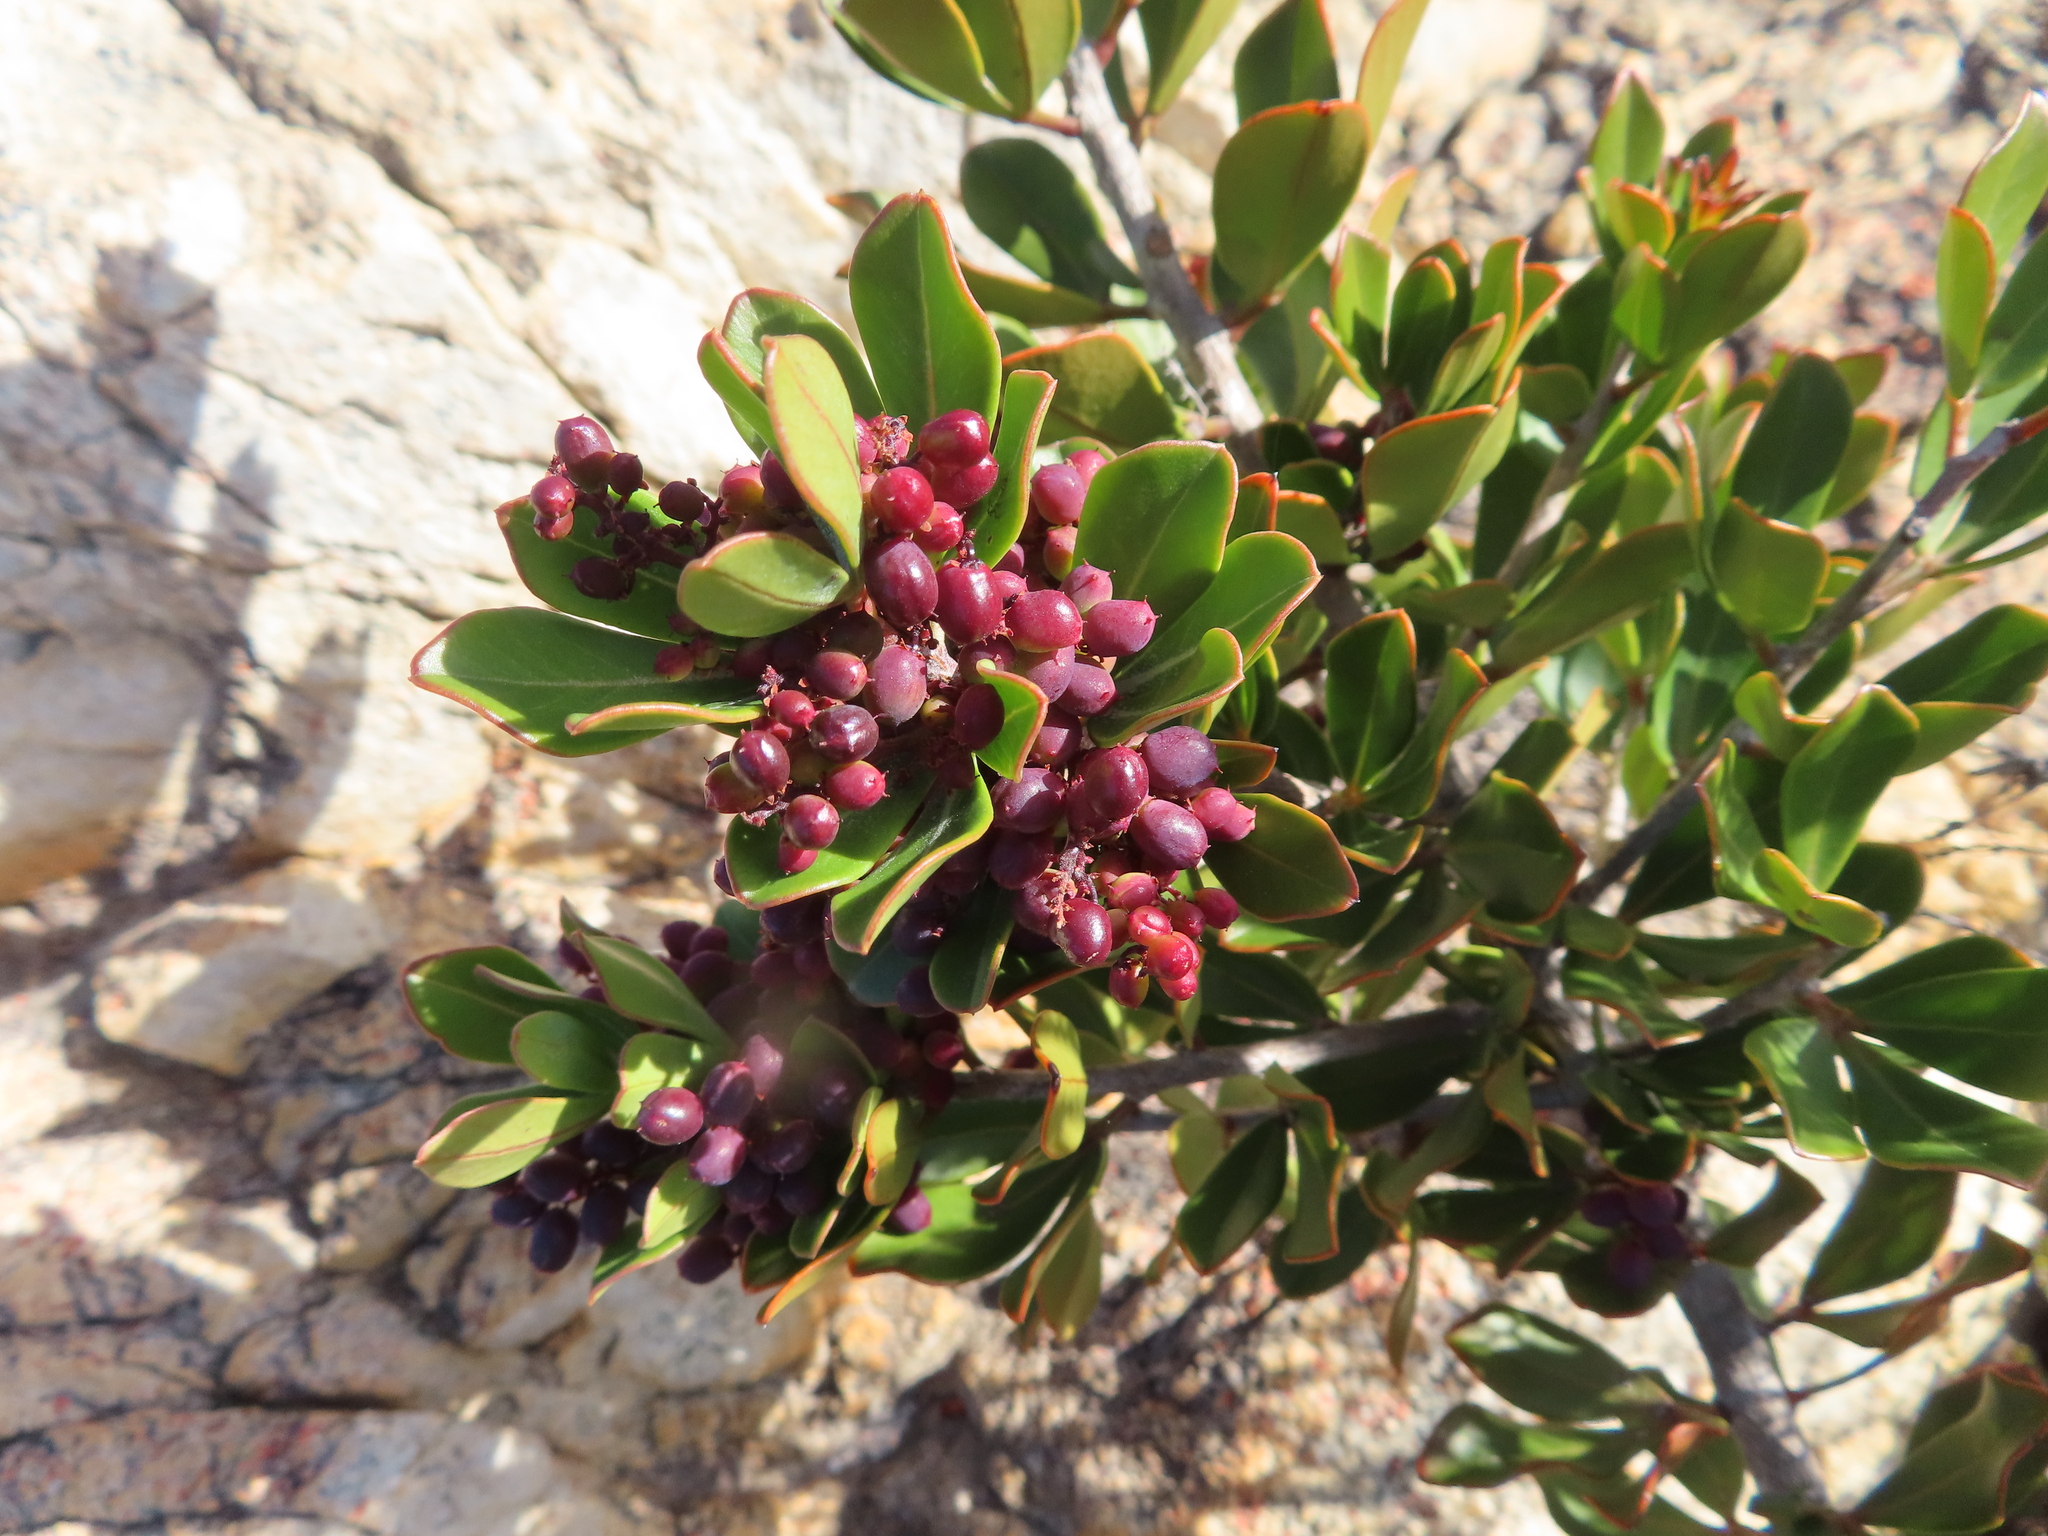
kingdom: Plantae
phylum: Tracheophyta
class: Magnoliopsida
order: Sapindales
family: Anacardiaceae
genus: Searsia
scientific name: Searsia scytophylla
